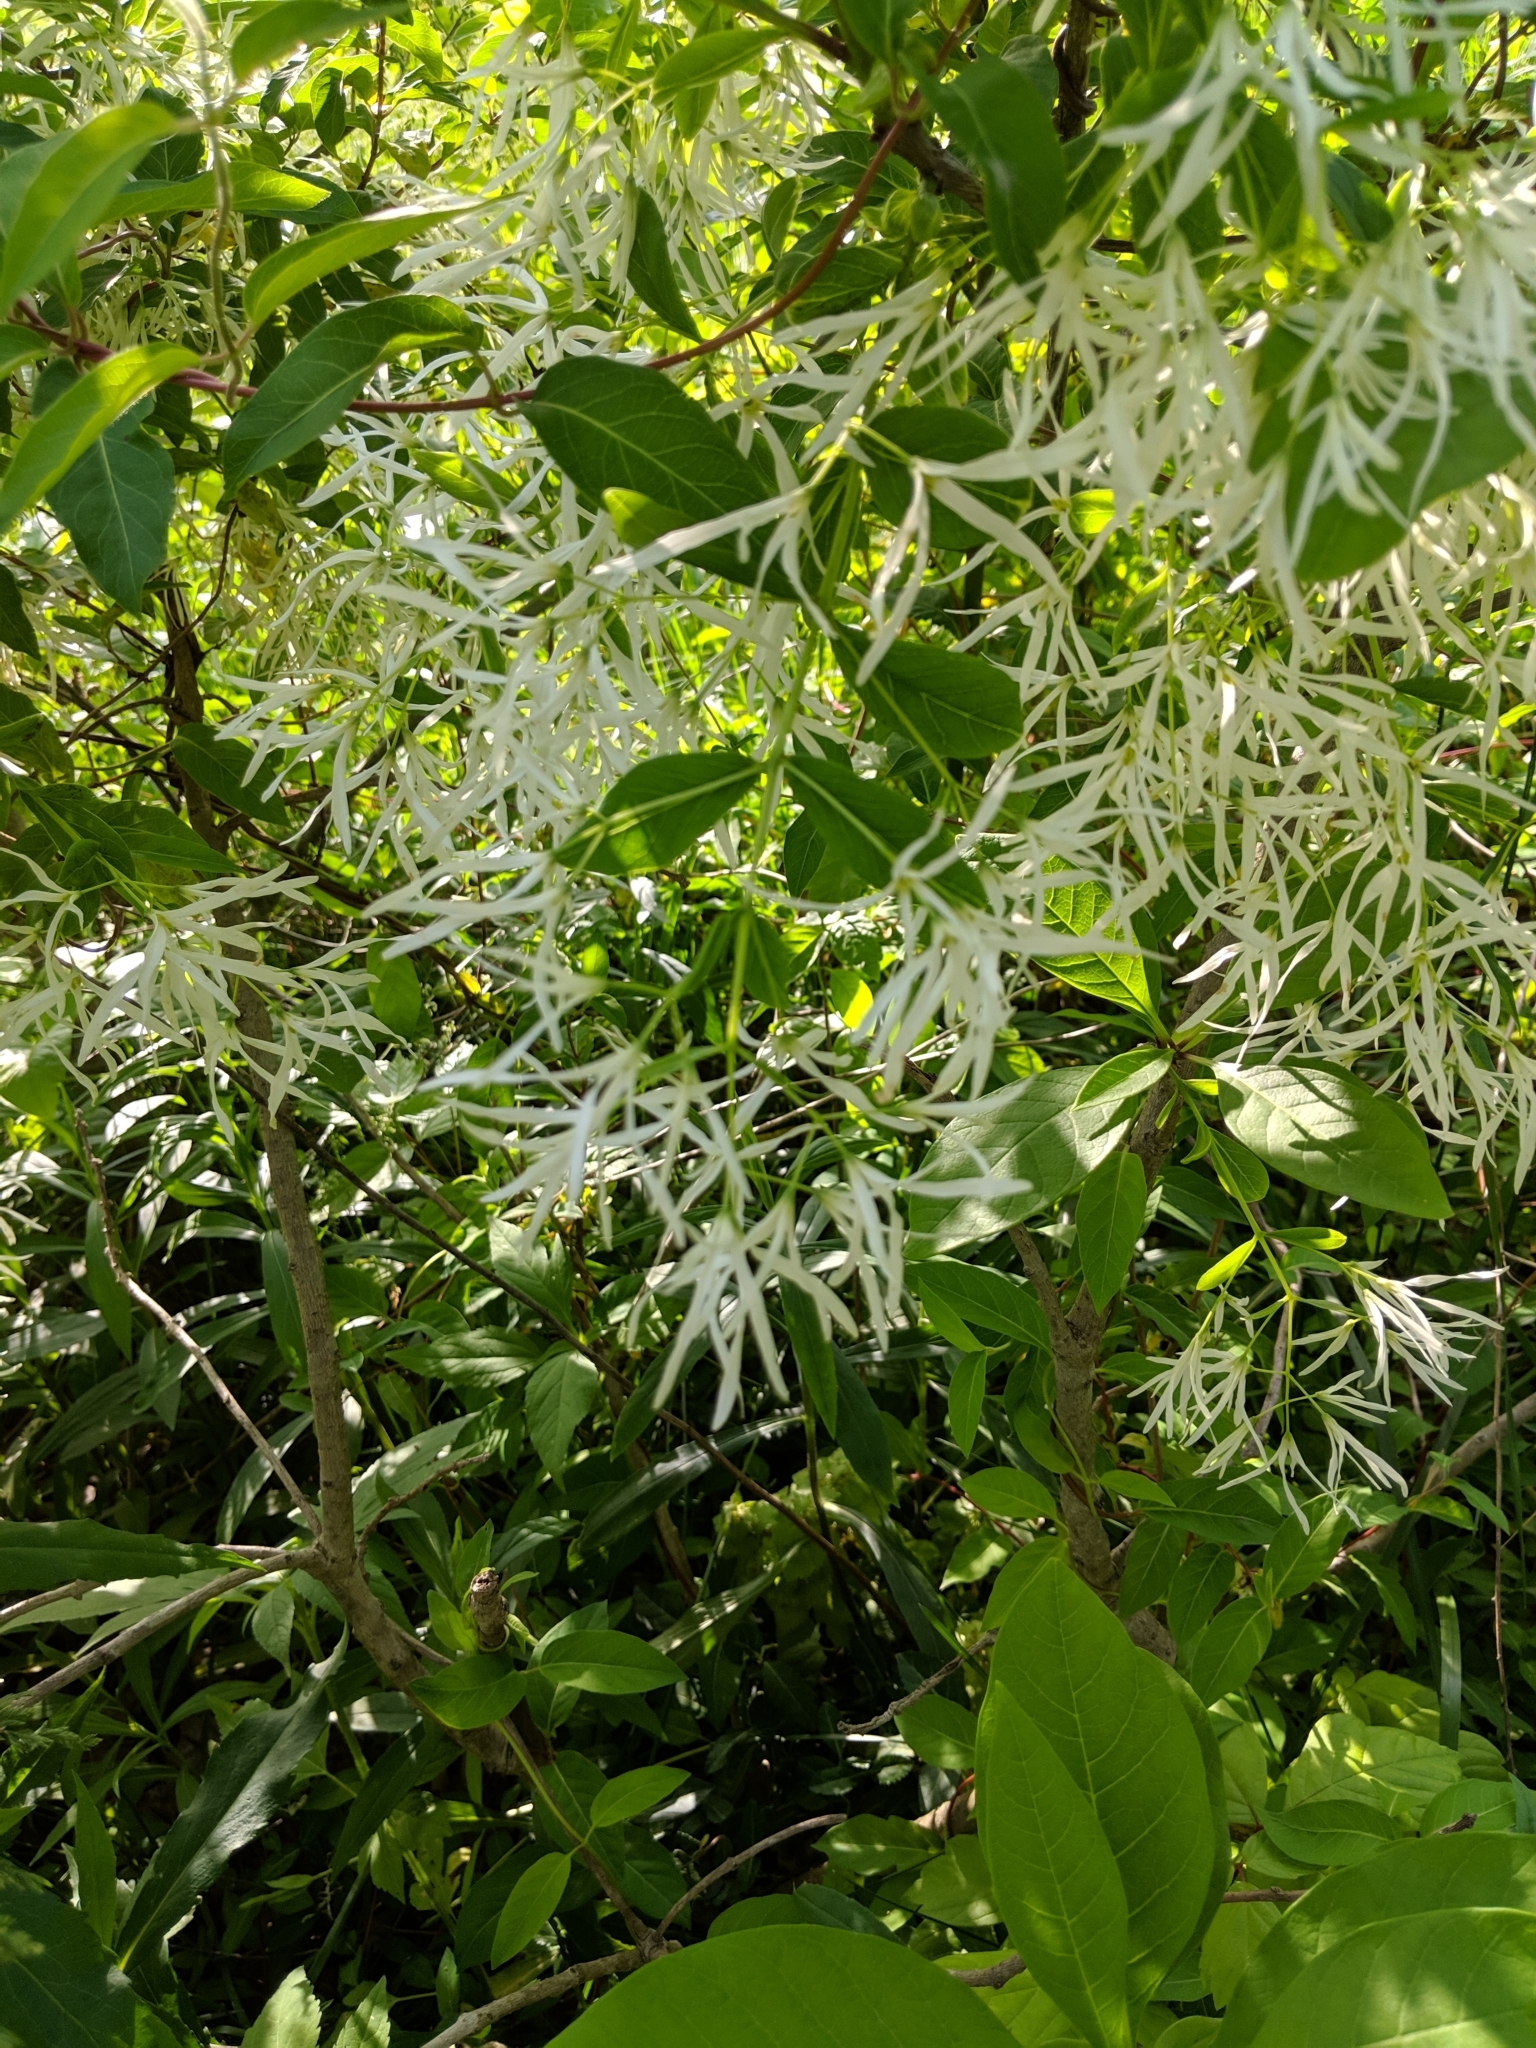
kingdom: Plantae
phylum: Tracheophyta
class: Magnoliopsida
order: Lamiales
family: Oleaceae
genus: Chionanthus
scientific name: Chionanthus virginicus
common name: American fringetree
